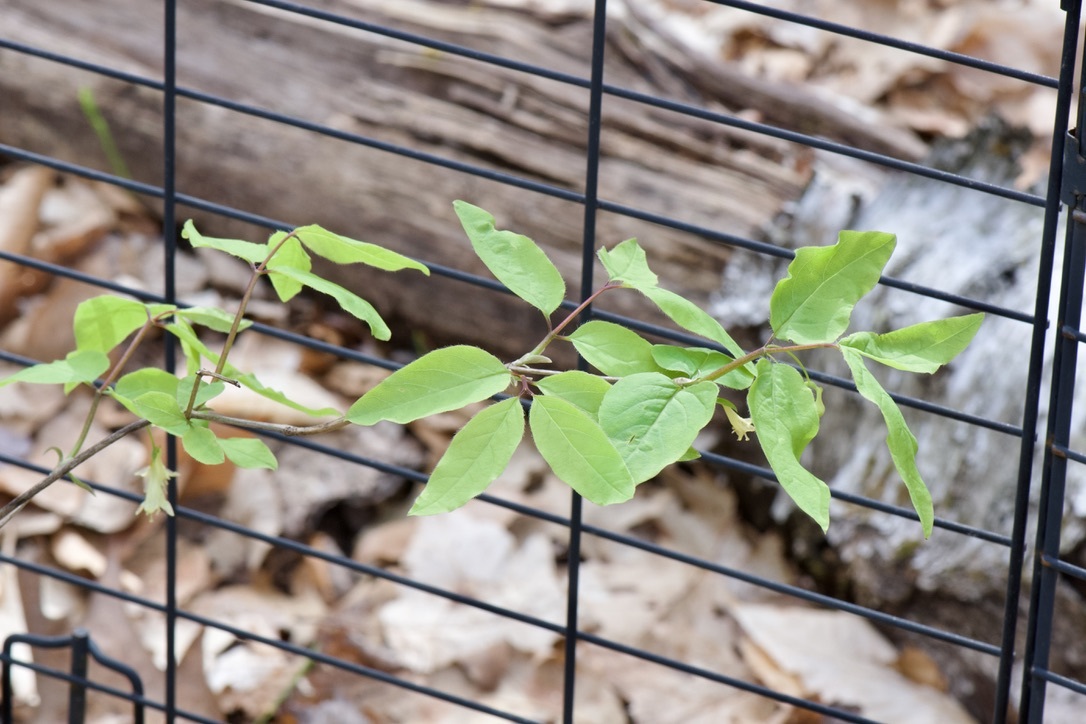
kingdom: Plantae
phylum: Tracheophyta
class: Magnoliopsida
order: Dipsacales
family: Caprifoliaceae
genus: Lonicera
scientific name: Lonicera canadensis
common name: American fly-honeysuckle
